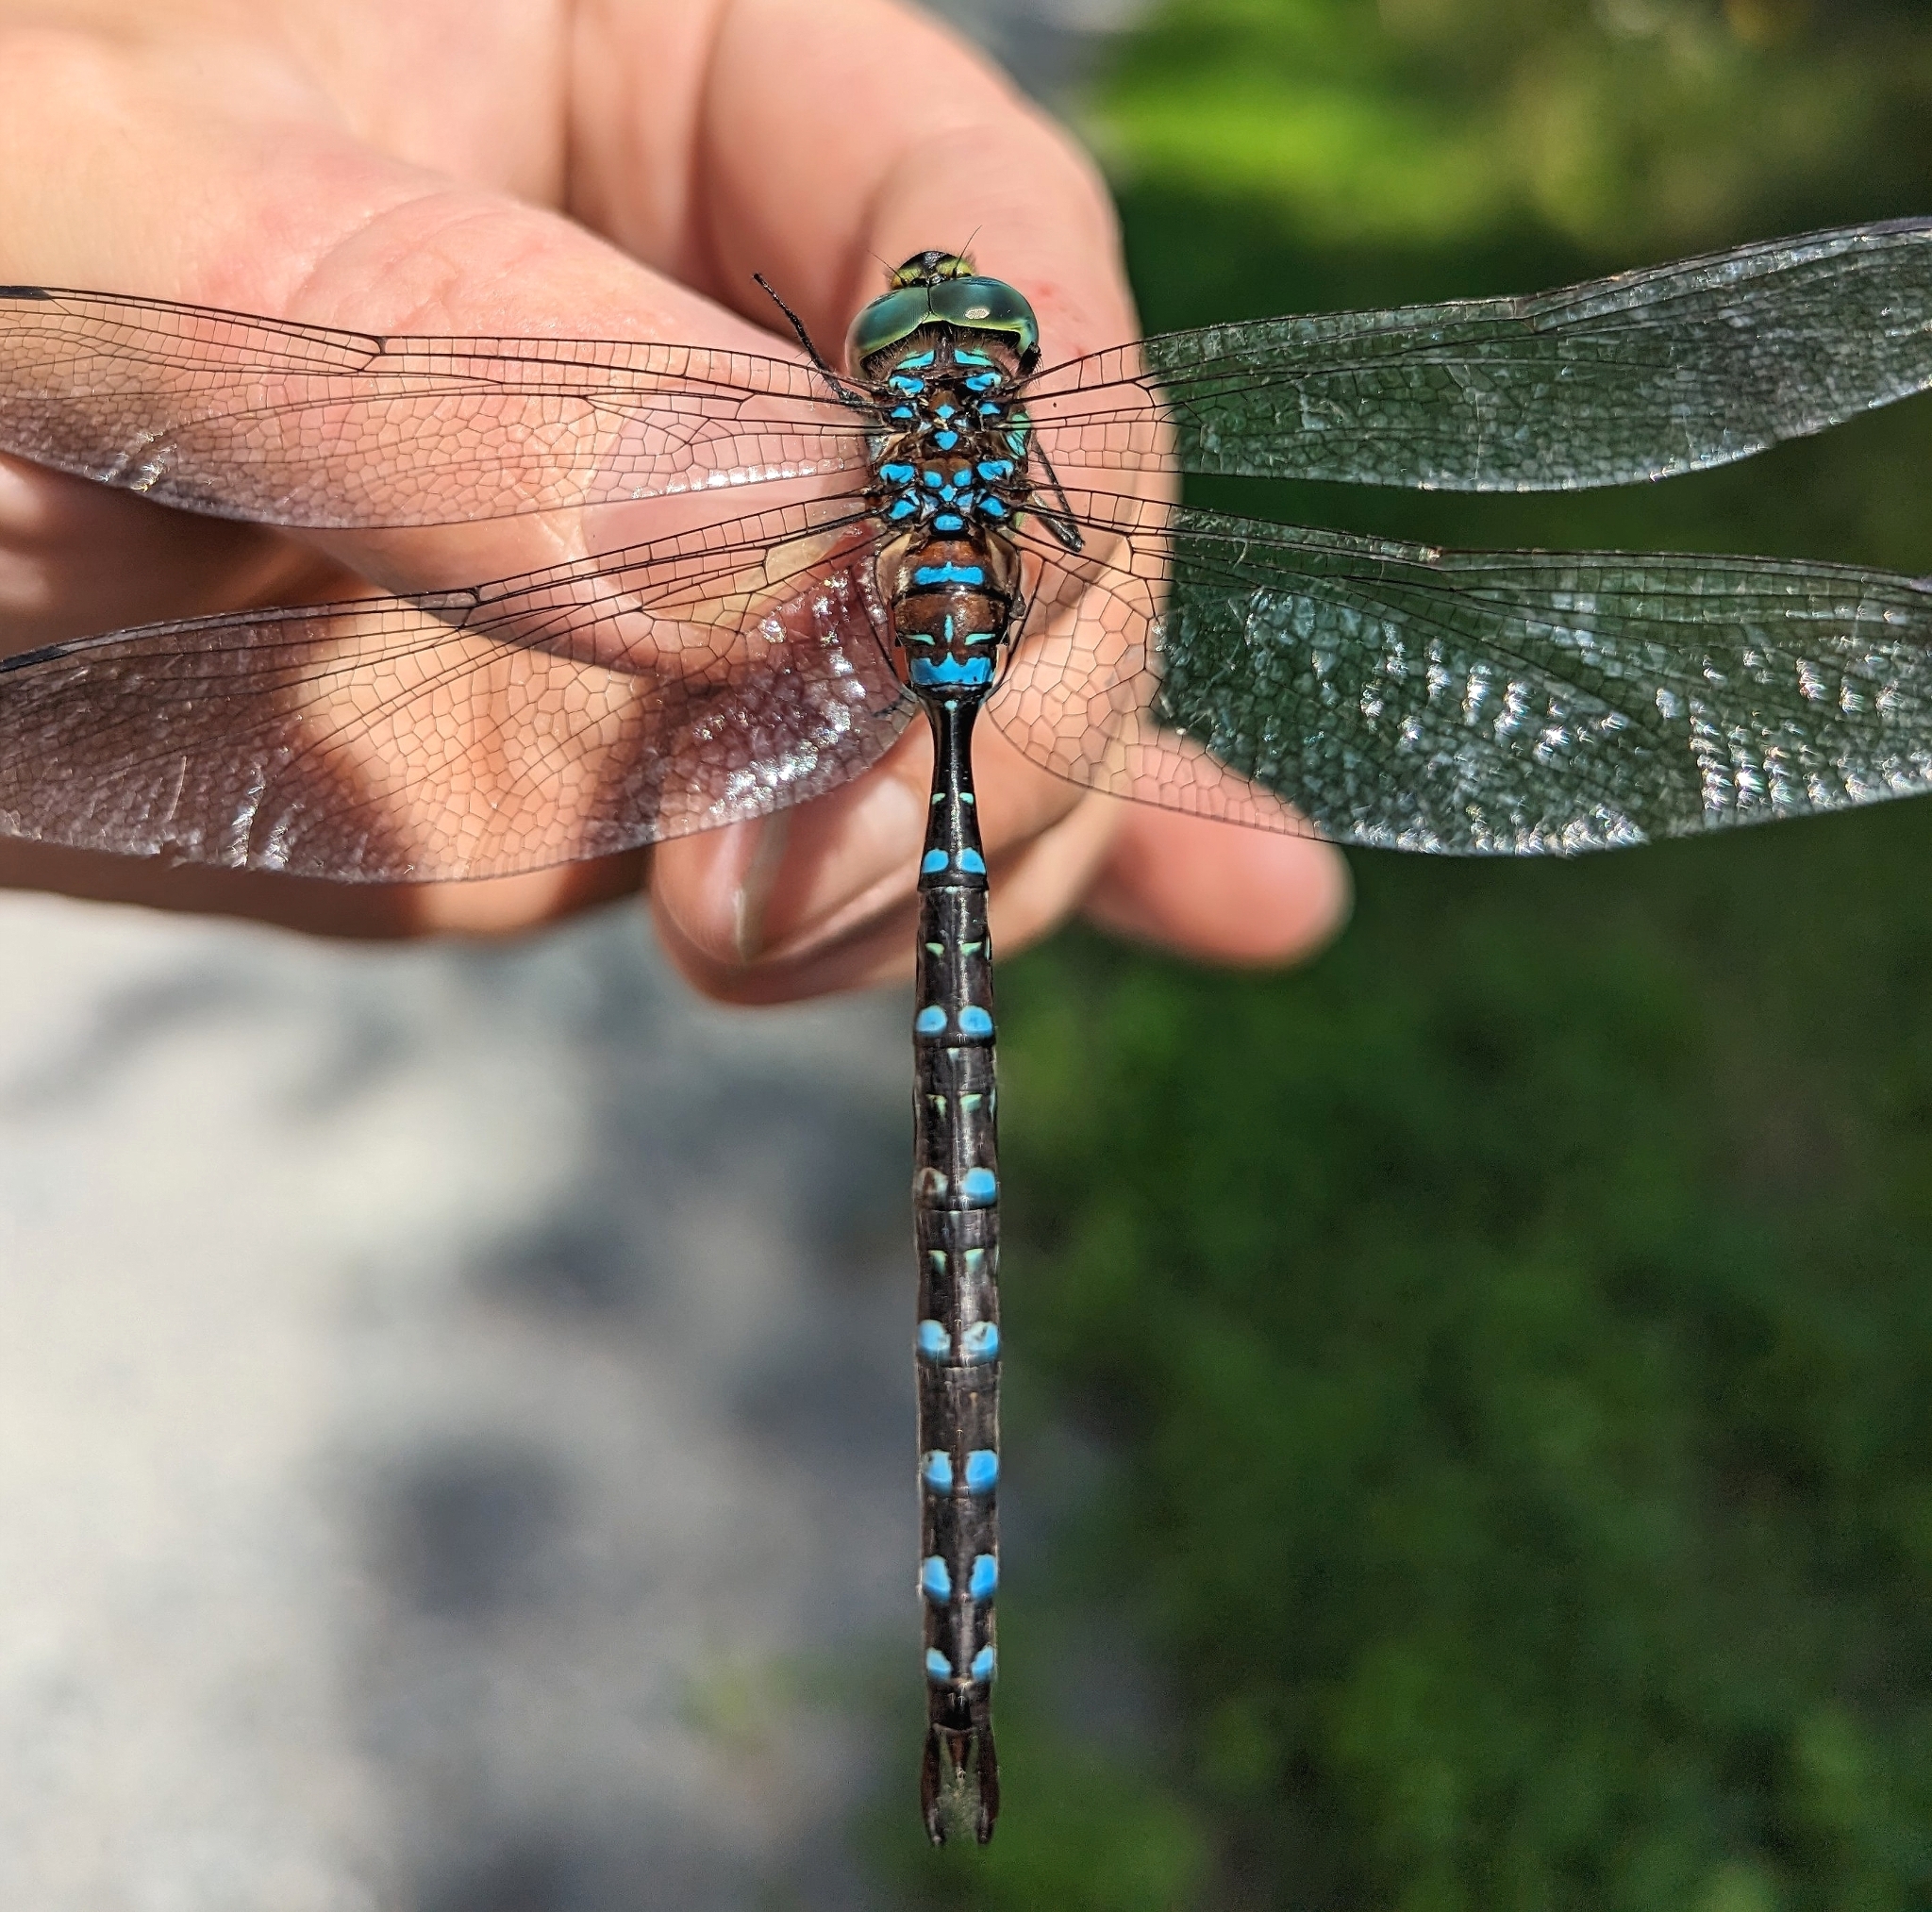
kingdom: Animalia
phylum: Arthropoda
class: Insecta
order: Odonata
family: Aeshnidae
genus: Aeshna
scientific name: Aeshna tuberculifera
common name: Aeschne à tubercules
